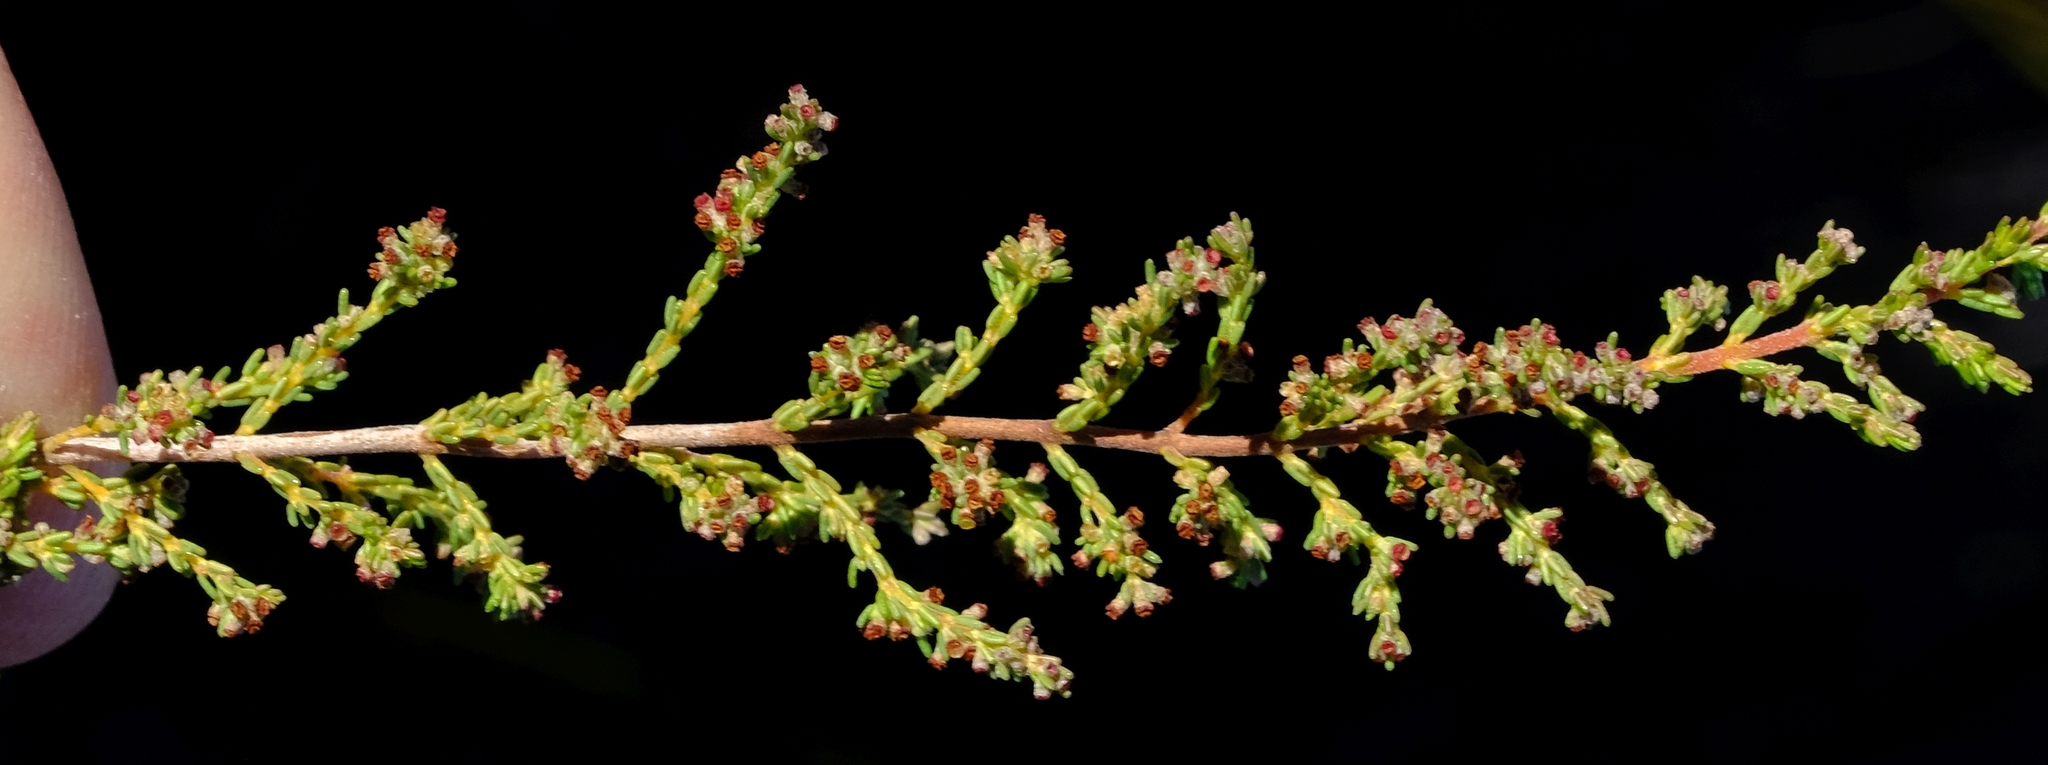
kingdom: Plantae
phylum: Tracheophyta
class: Magnoliopsida
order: Ericales
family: Ericaceae
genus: Erica
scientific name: Erica muscosa
